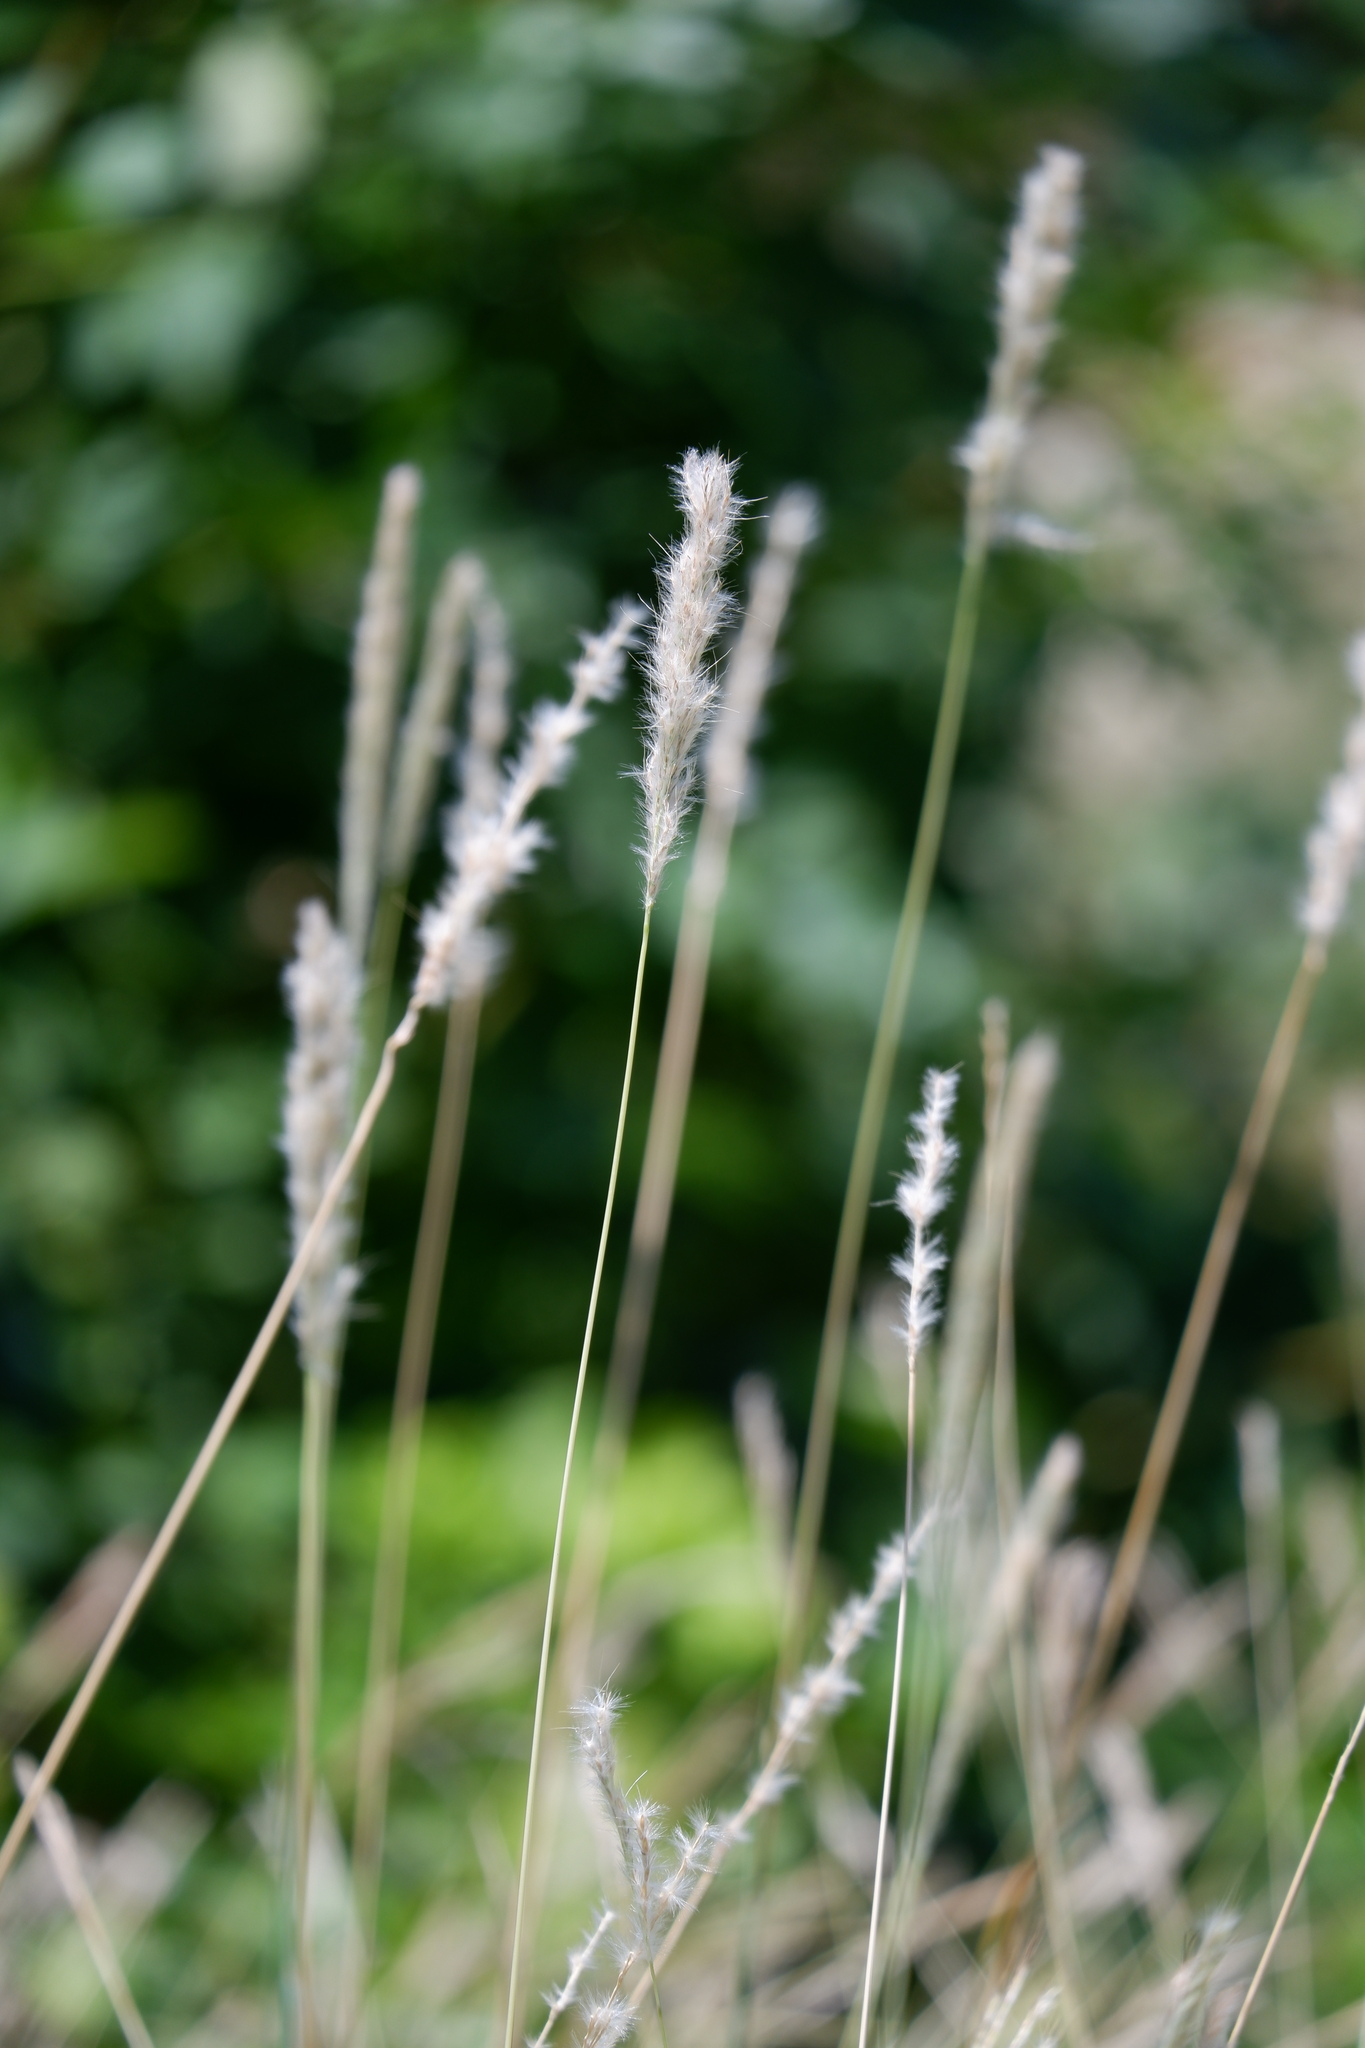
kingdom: Plantae
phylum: Tracheophyta
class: Liliopsida
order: Poales
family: Poaceae
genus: Bothriochloa
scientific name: Bothriochloa torreyana
